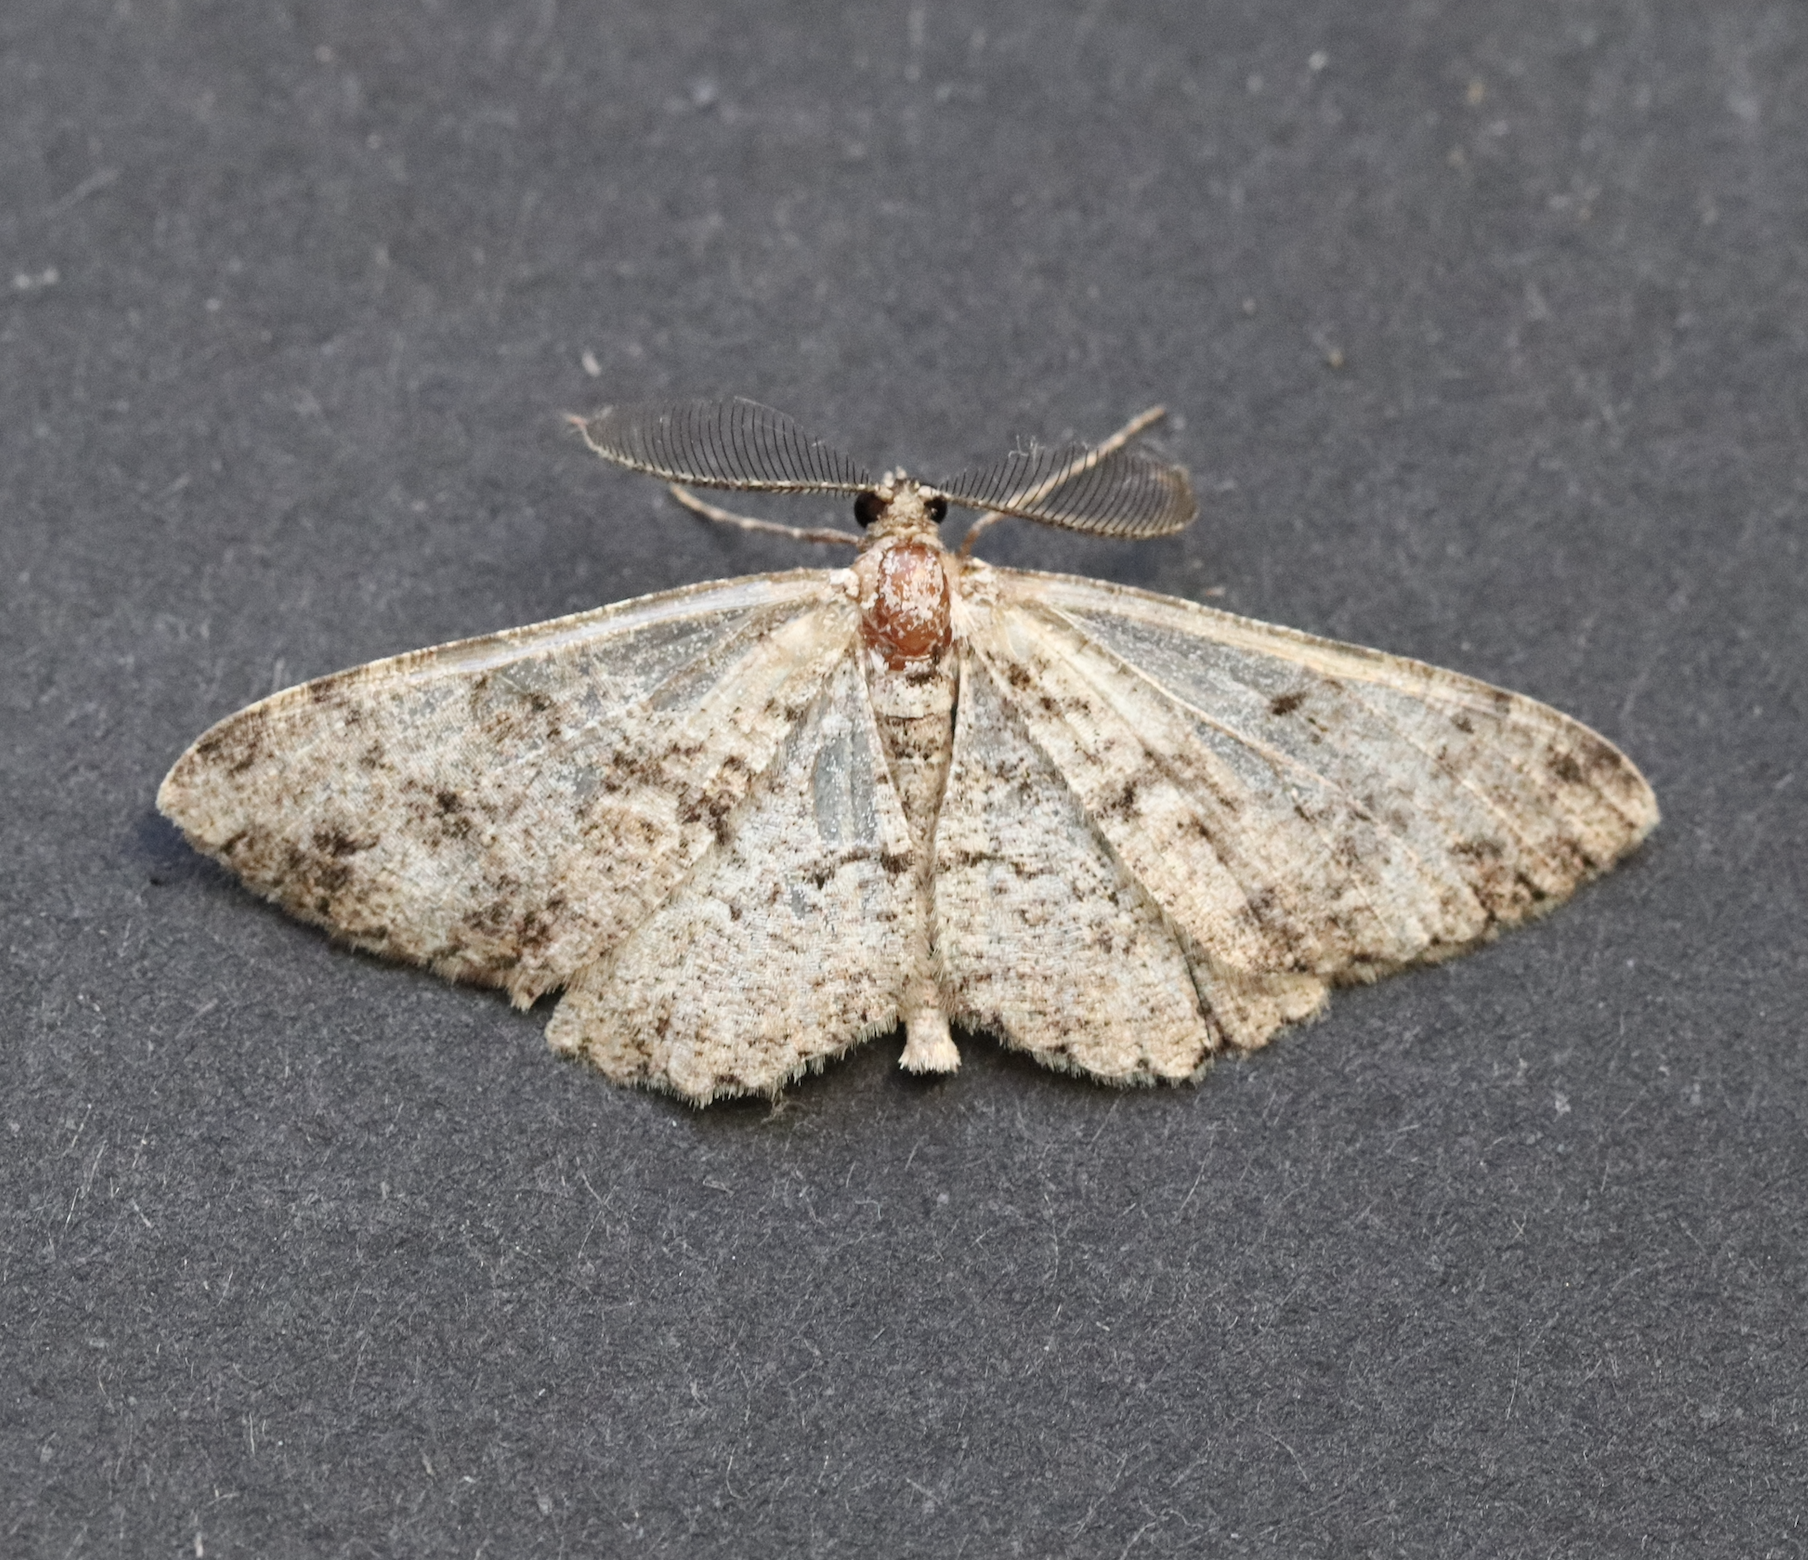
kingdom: Animalia
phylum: Arthropoda
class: Insecta
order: Lepidoptera
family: Geometridae
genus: Peribatodes
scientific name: Peribatodes secundaria
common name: Feathered beauty
